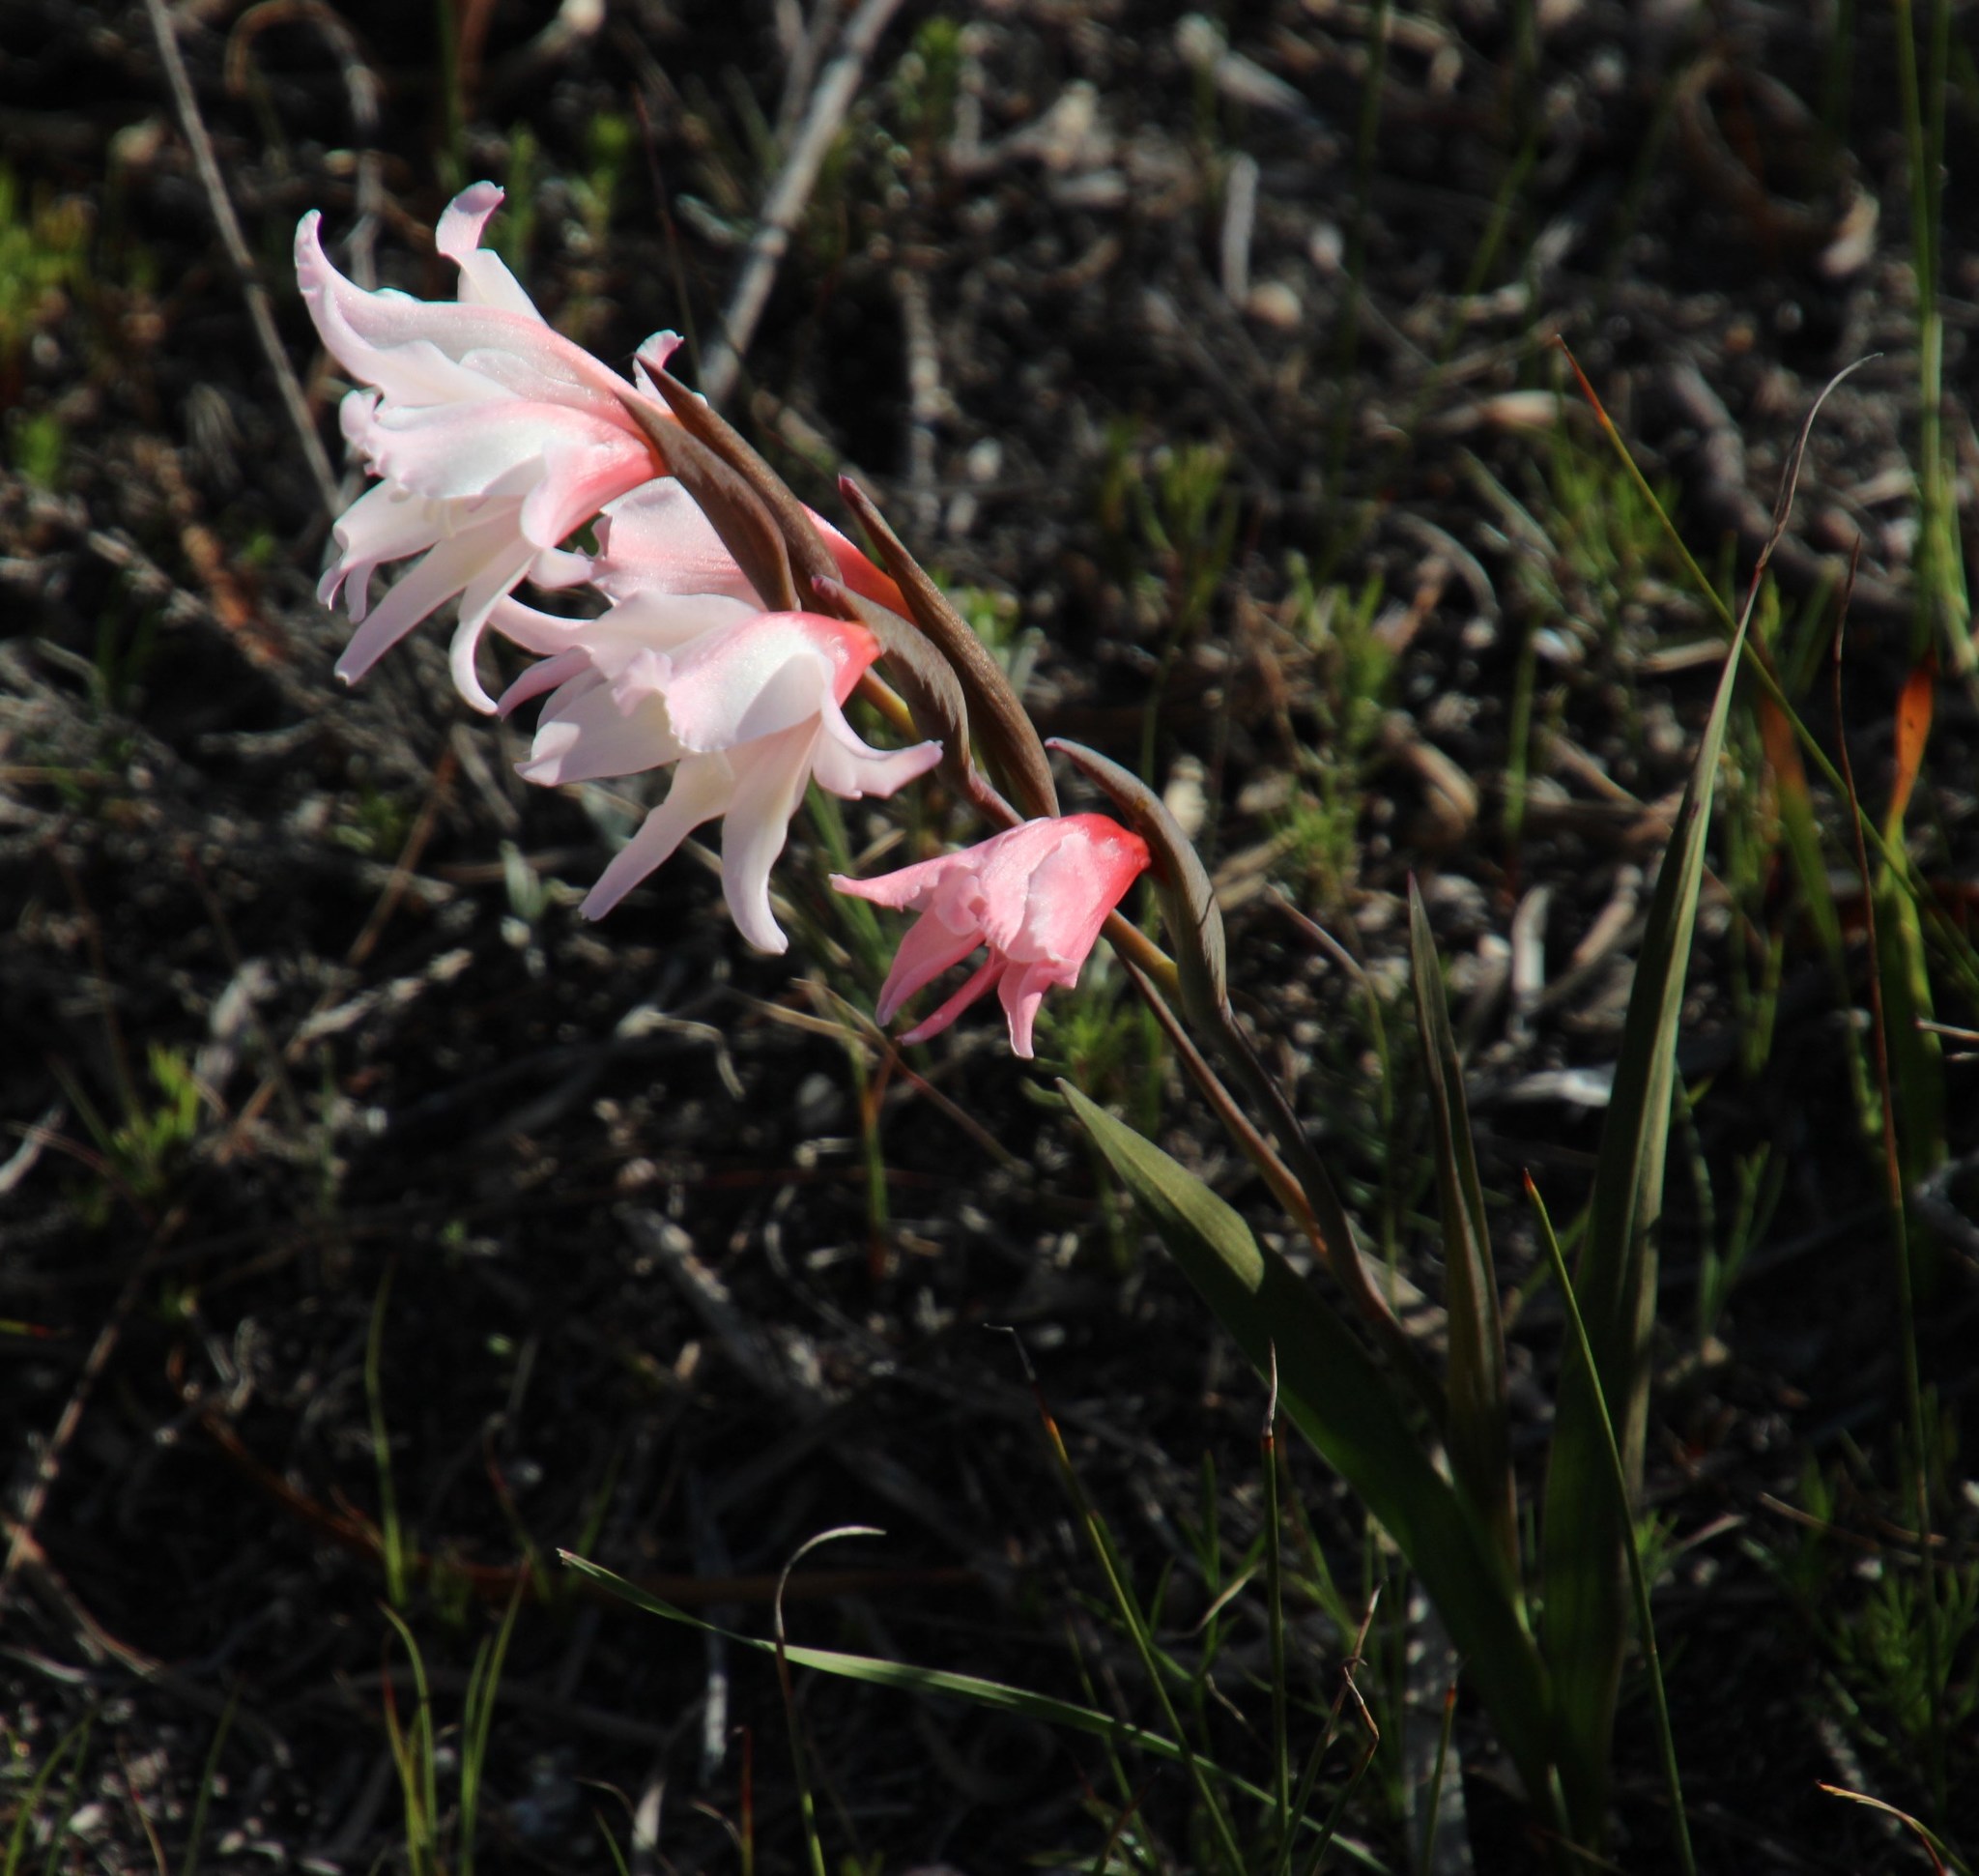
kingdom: Plantae
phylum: Tracheophyta
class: Liliopsida
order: Asparagales
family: Iridaceae
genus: Gladiolus
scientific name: Gladiolus carneus
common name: Painted-lady
